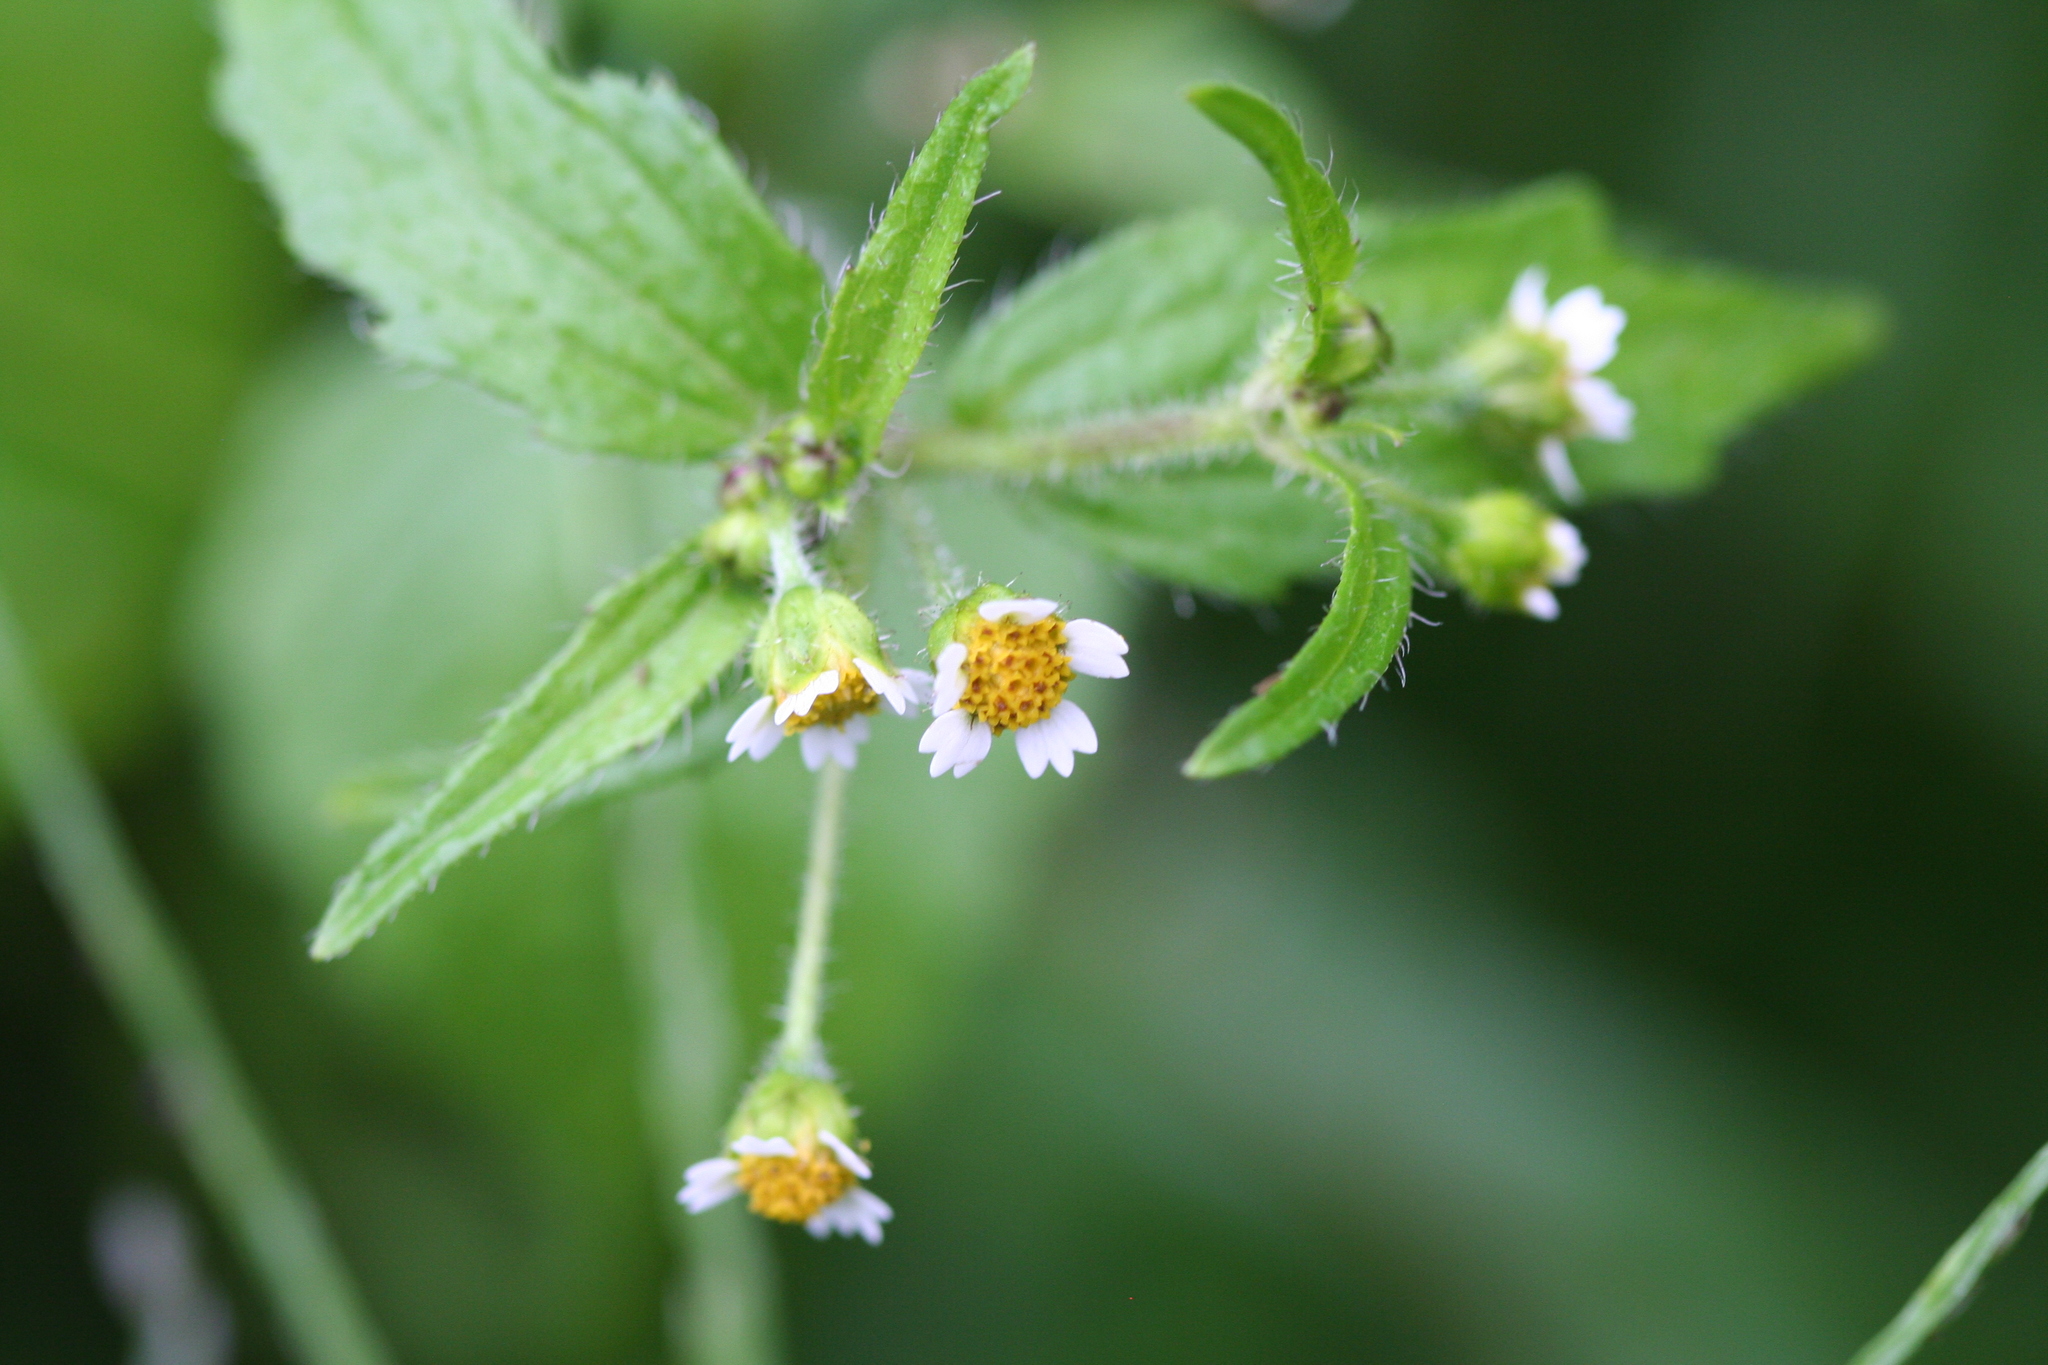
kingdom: Plantae
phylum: Tracheophyta
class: Magnoliopsida
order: Asterales
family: Asteraceae
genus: Galinsoga
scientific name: Galinsoga quadriradiata
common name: Shaggy soldier
